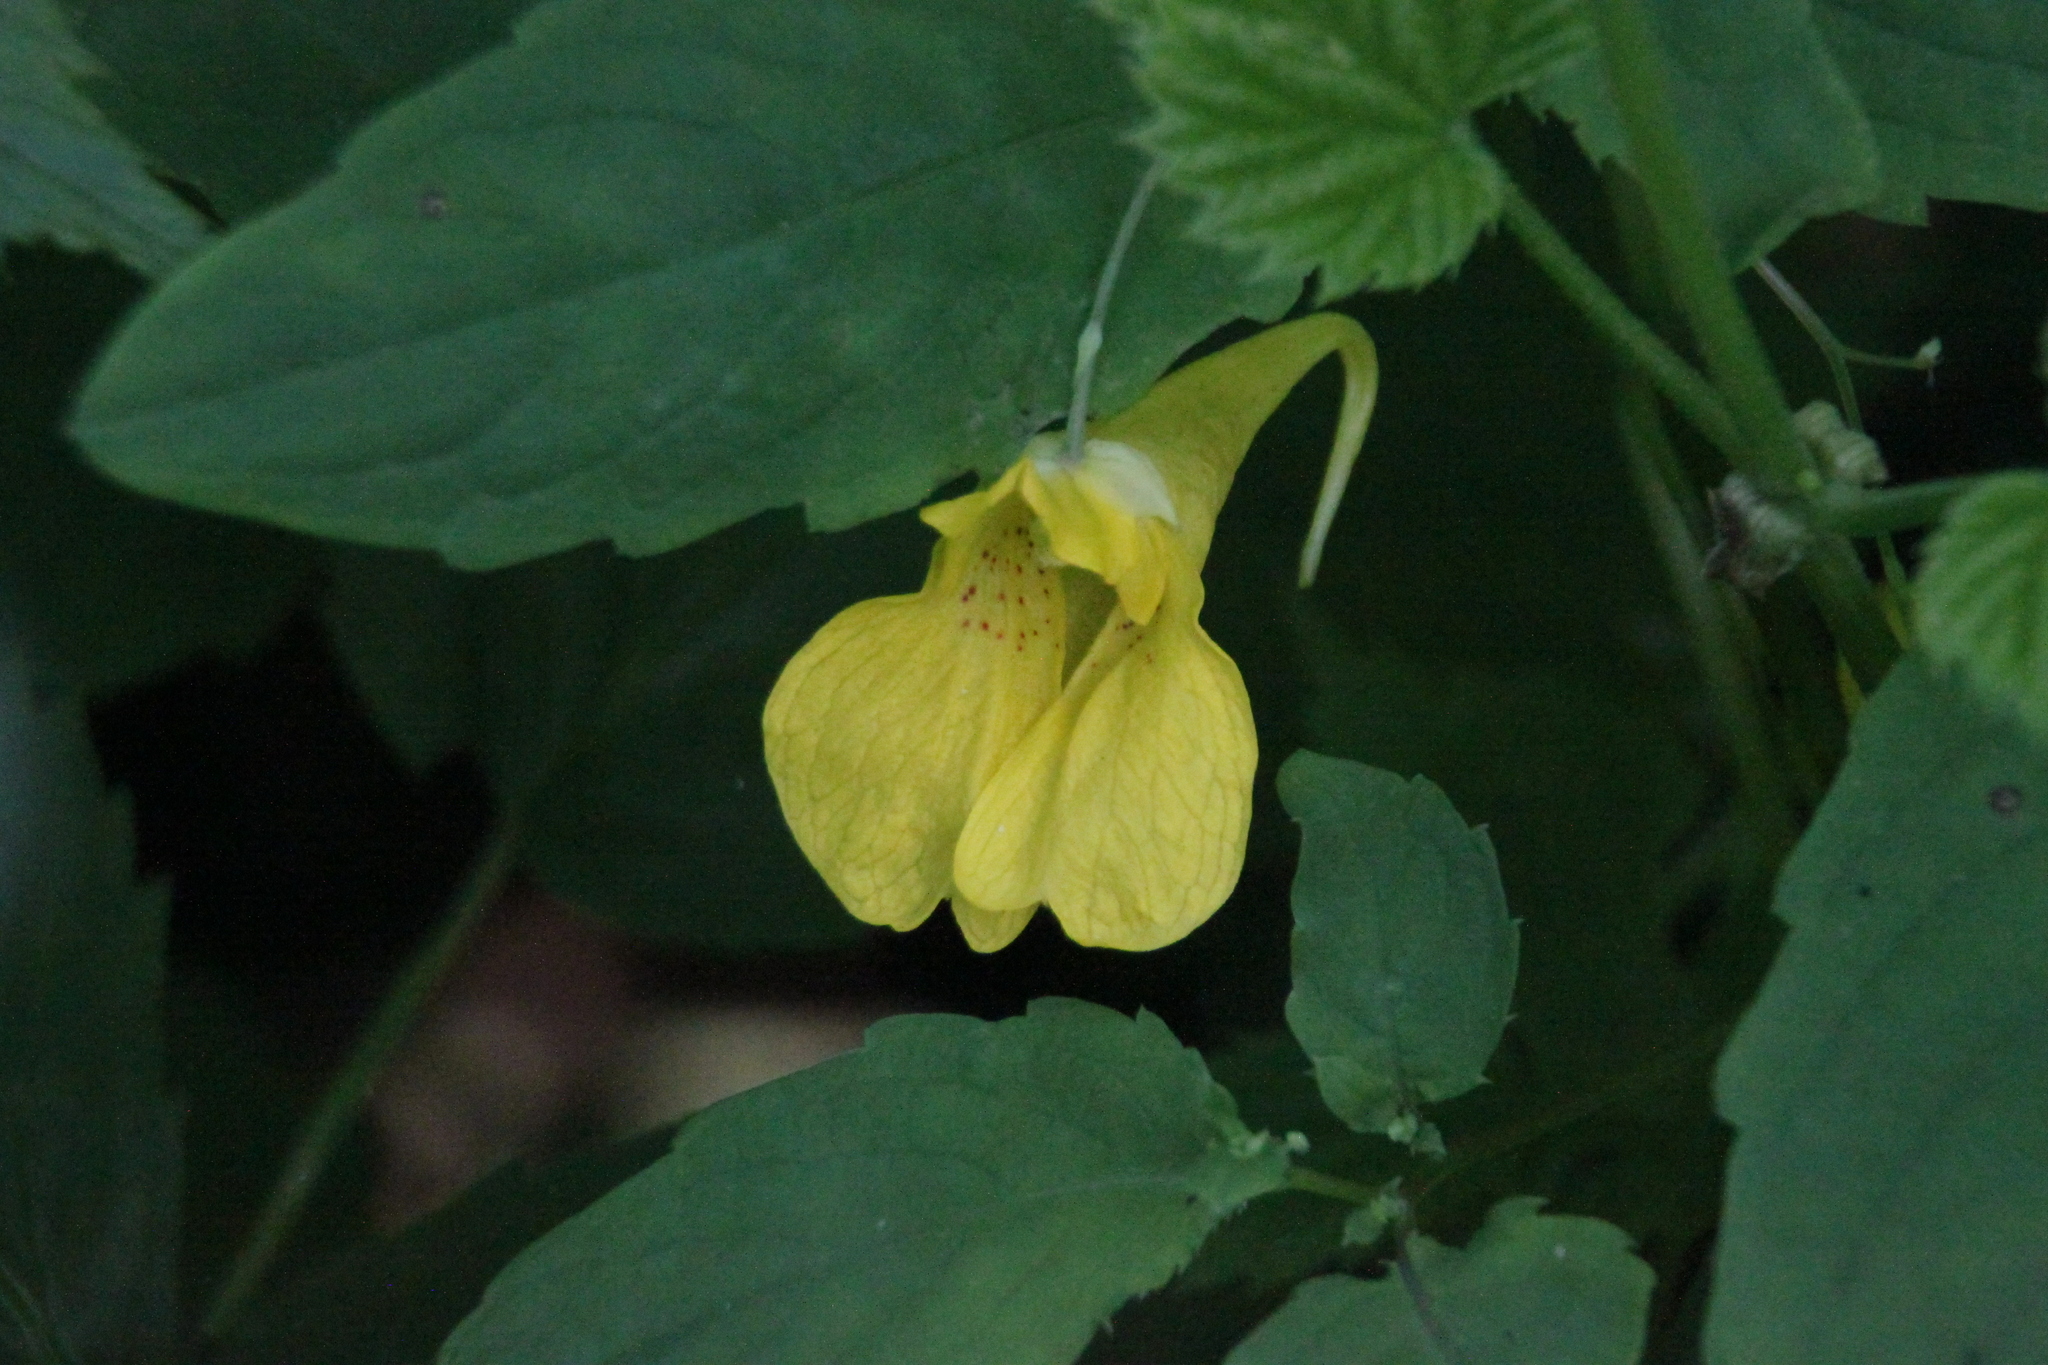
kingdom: Plantae
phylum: Tracheophyta
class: Magnoliopsida
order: Ericales
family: Balsaminaceae
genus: Impatiens
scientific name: Impatiens noli-tangere
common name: Touch-me-not balsam
